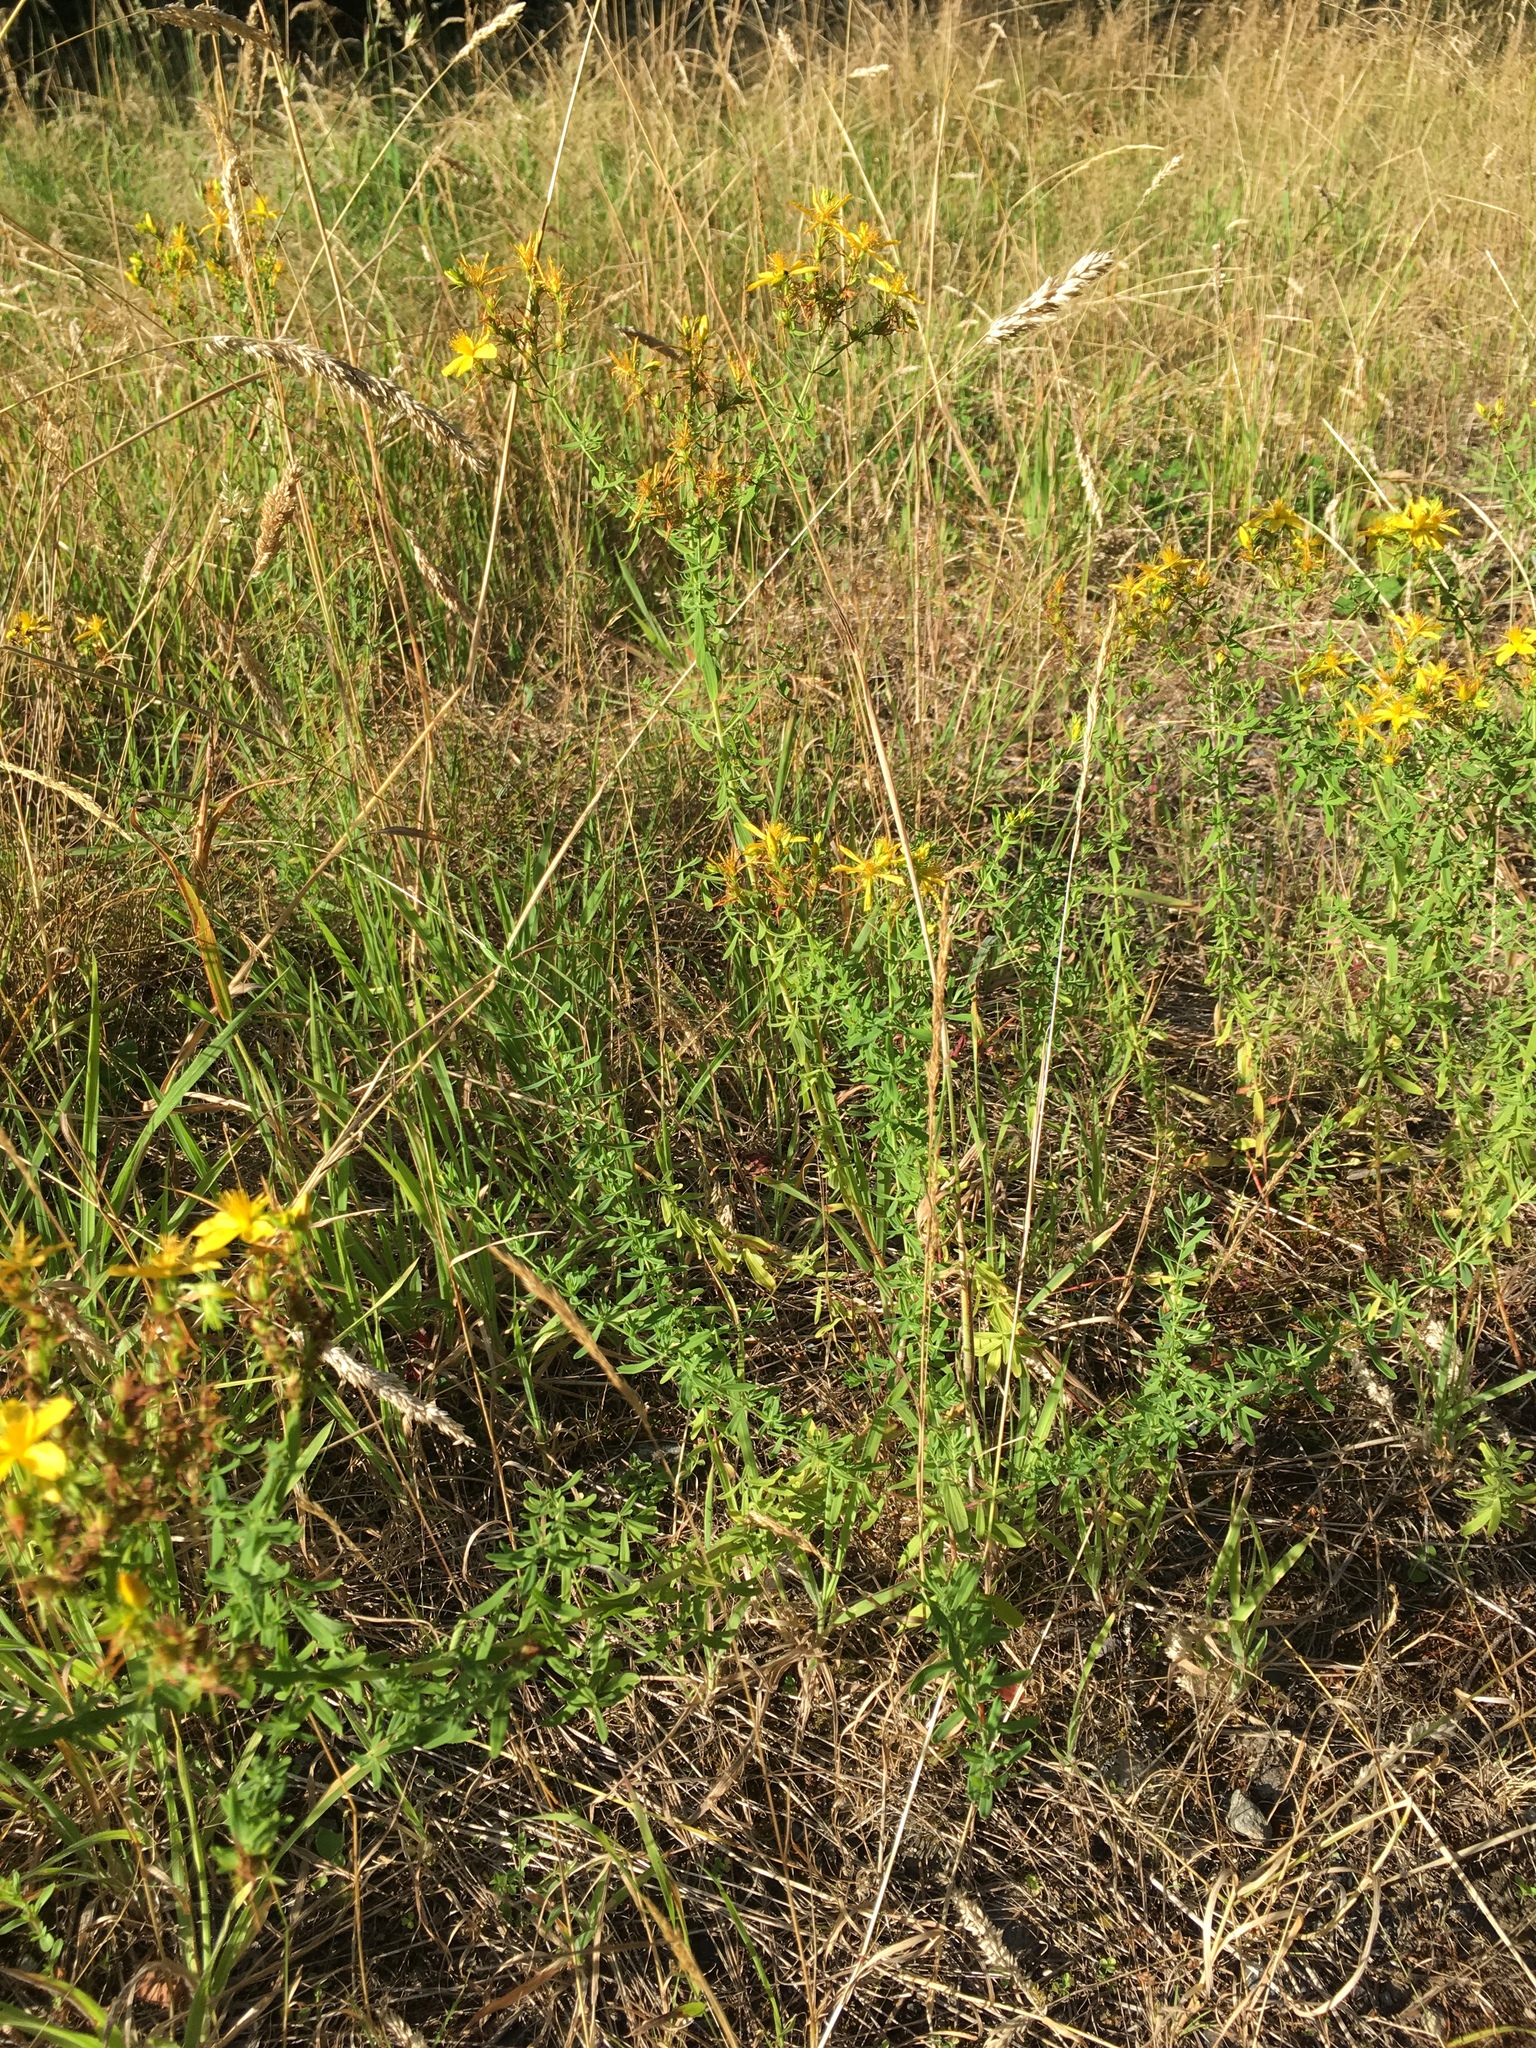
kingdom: Plantae
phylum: Tracheophyta
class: Magnoliopsida
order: Malpighiales
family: Hypericaceae
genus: Hypericum
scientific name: Hypericum perforatum
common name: Common st. johnswort
